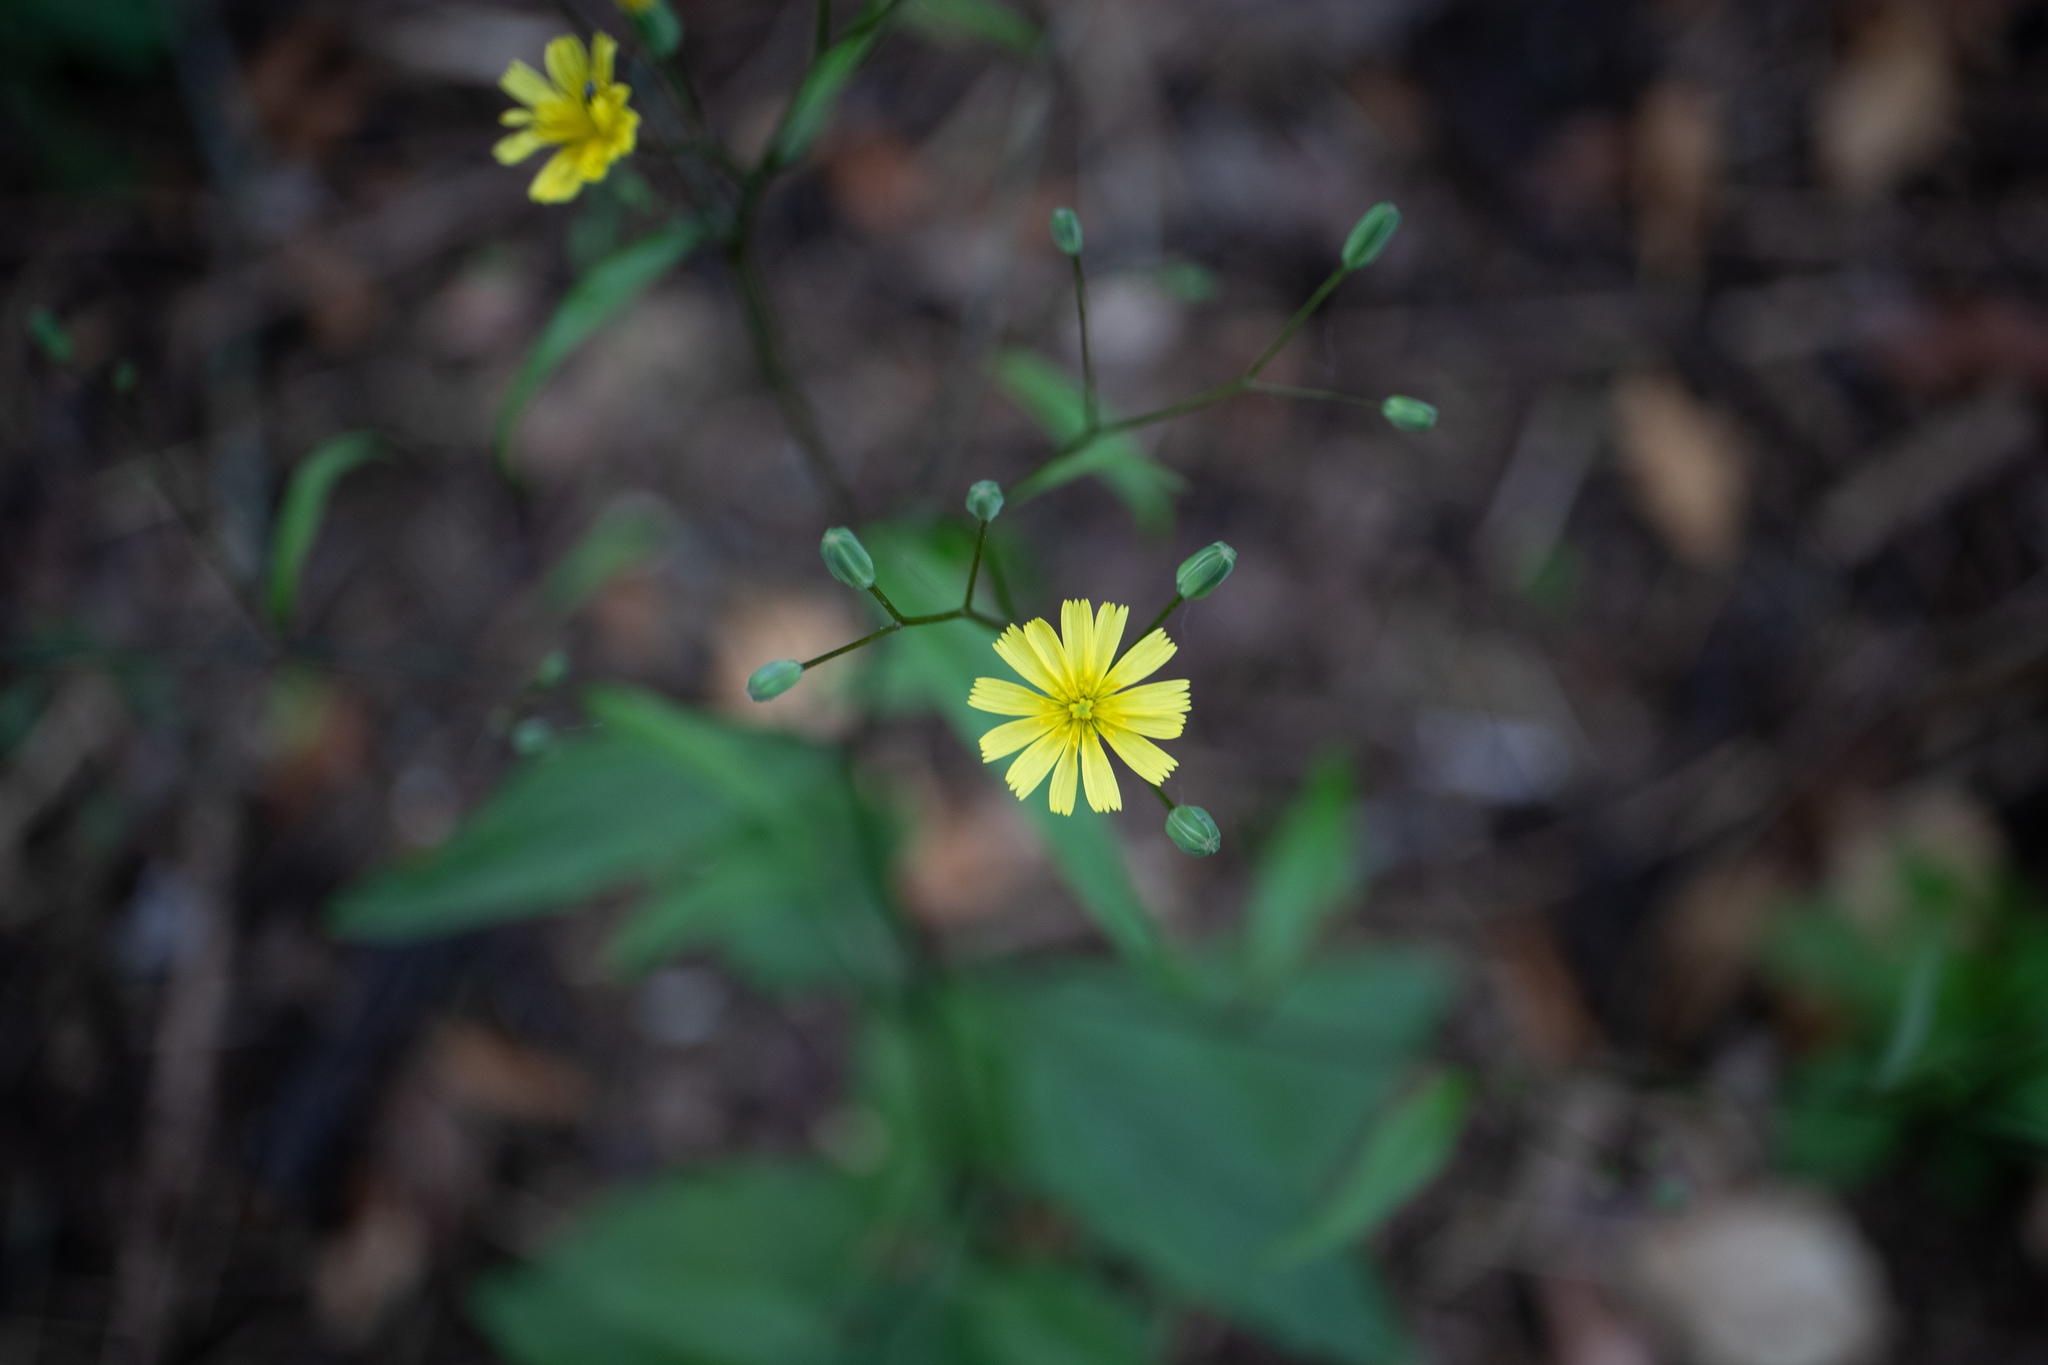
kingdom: Plantae
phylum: Tracheophyta
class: Magnoliopsida
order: Asterales
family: Asteraceae
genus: Lapsana
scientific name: Lapsana communis
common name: Nipplewort
